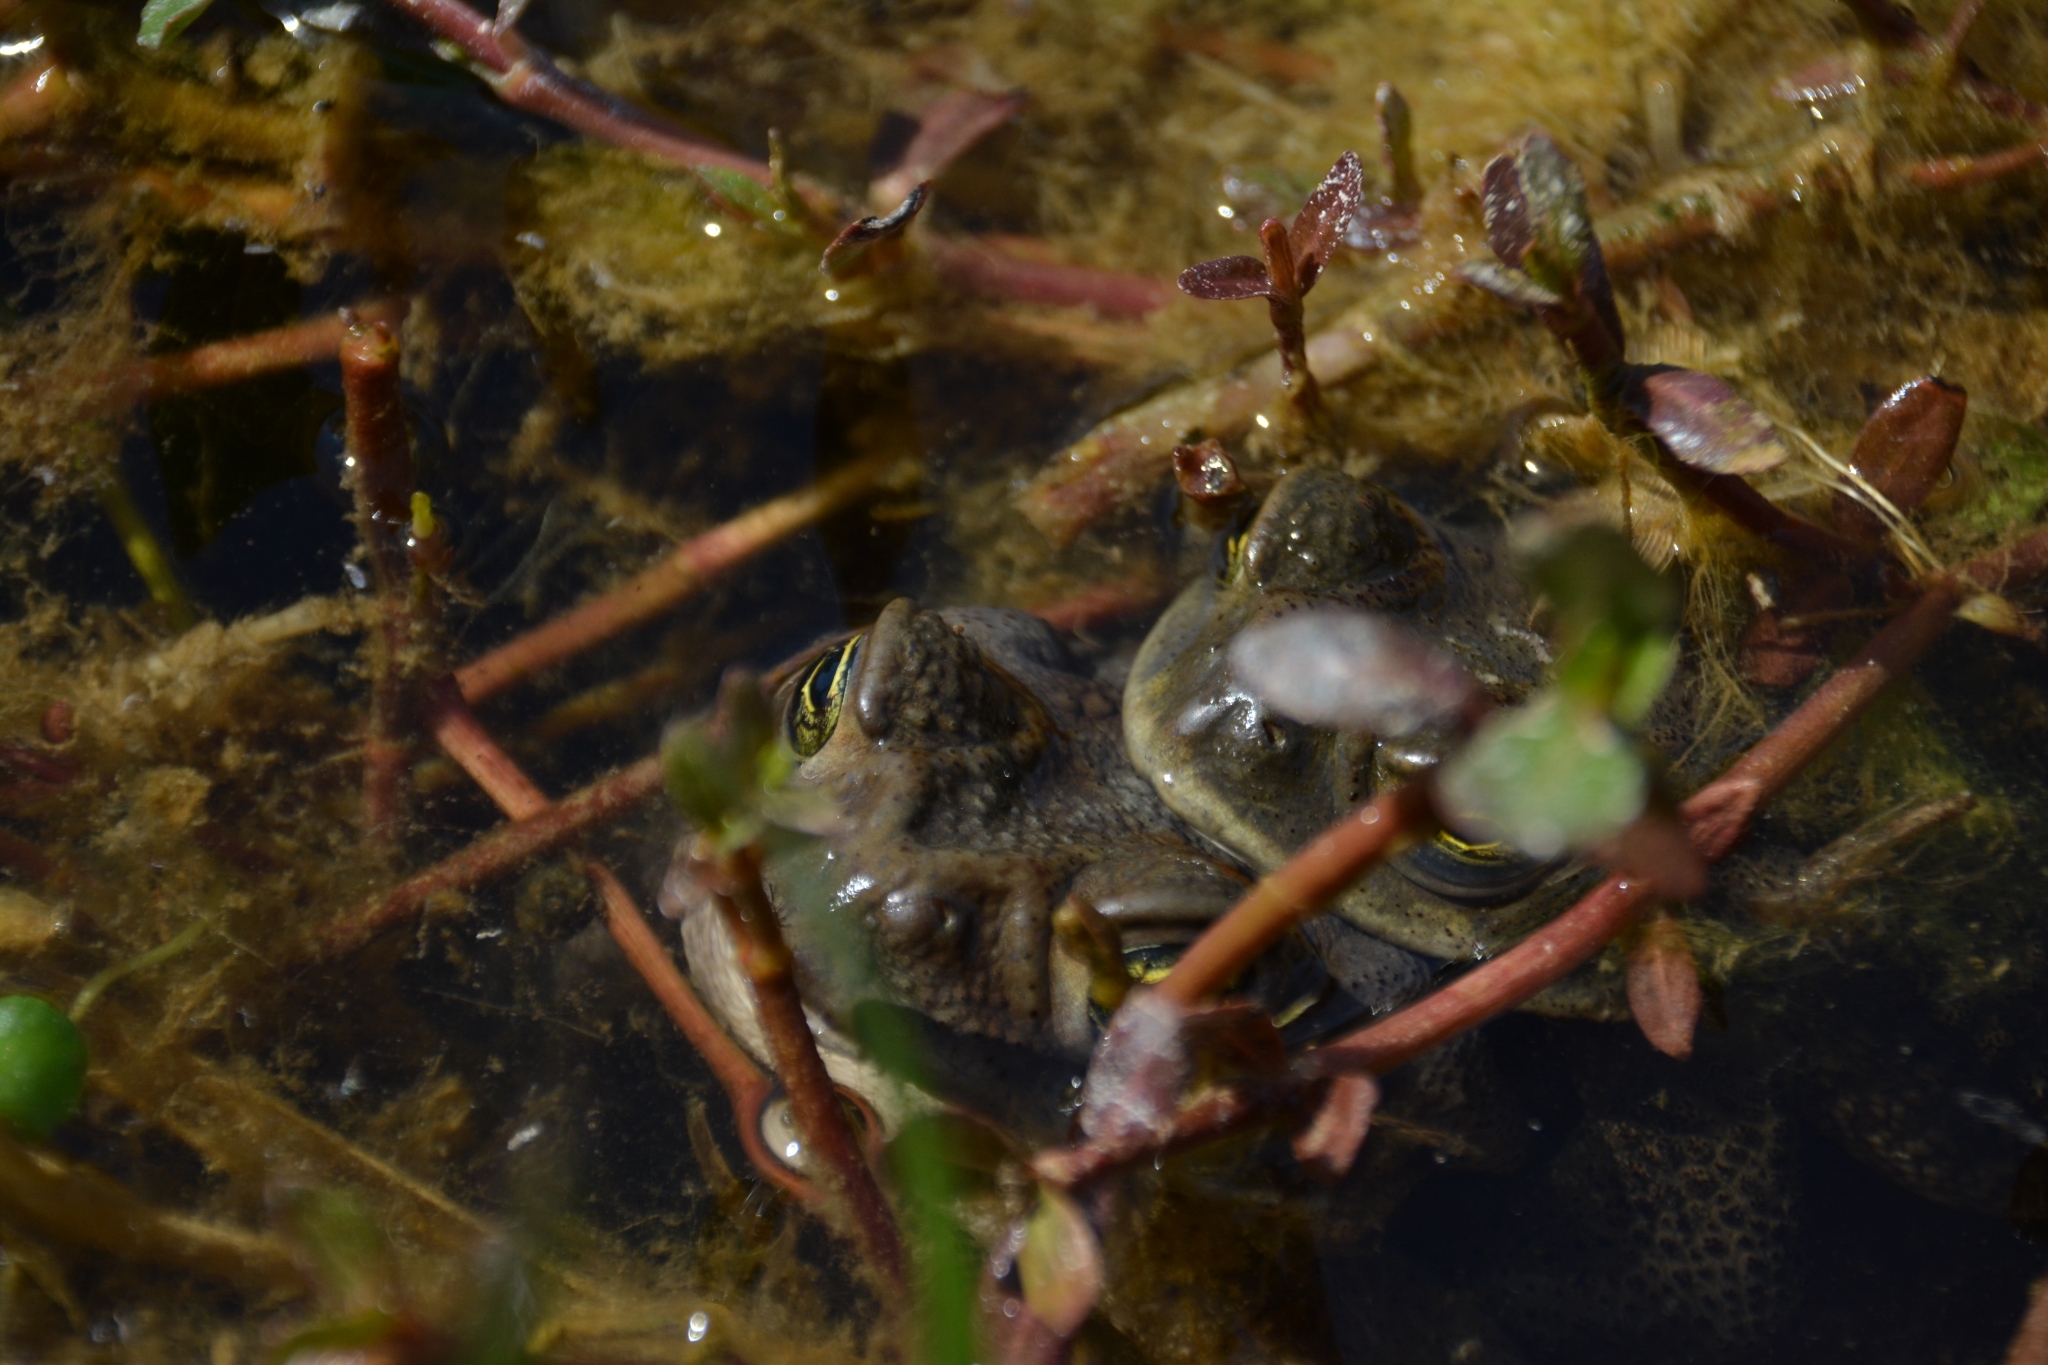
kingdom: Animalia
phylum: Chordata
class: Amphibia
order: Anura
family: Bufonidae
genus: Rhinella
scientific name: Rhinella arenarum
